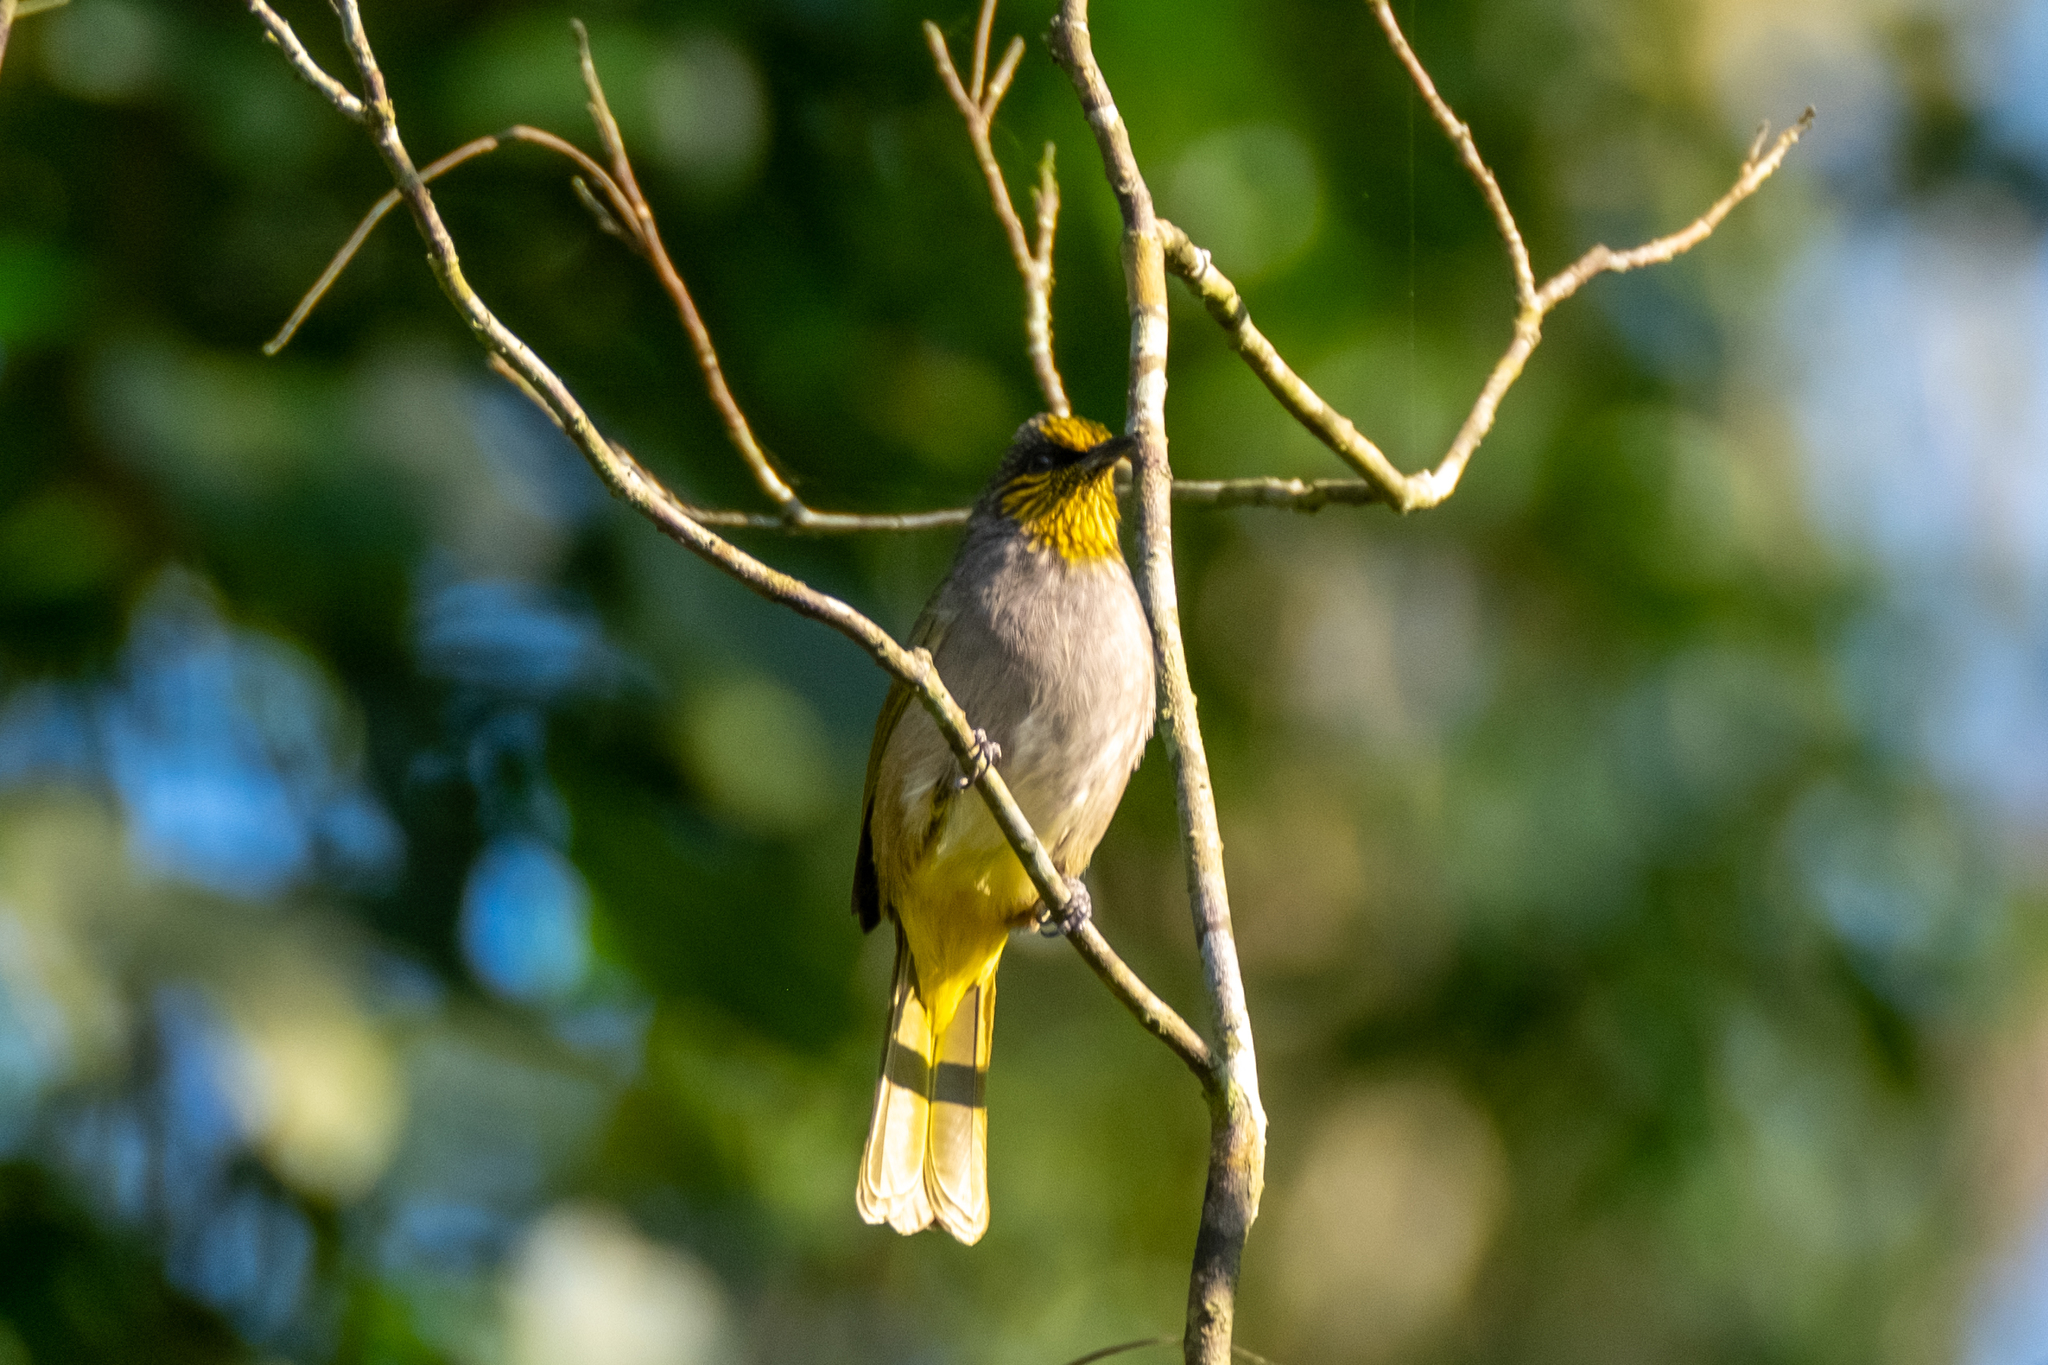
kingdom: Animalia
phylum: Chordata
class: Aves
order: Passeriformes
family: Pycnonotidae
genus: Pycnonotus
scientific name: Pycnonotus finlaysoni
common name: Stripe-throated bulbul
